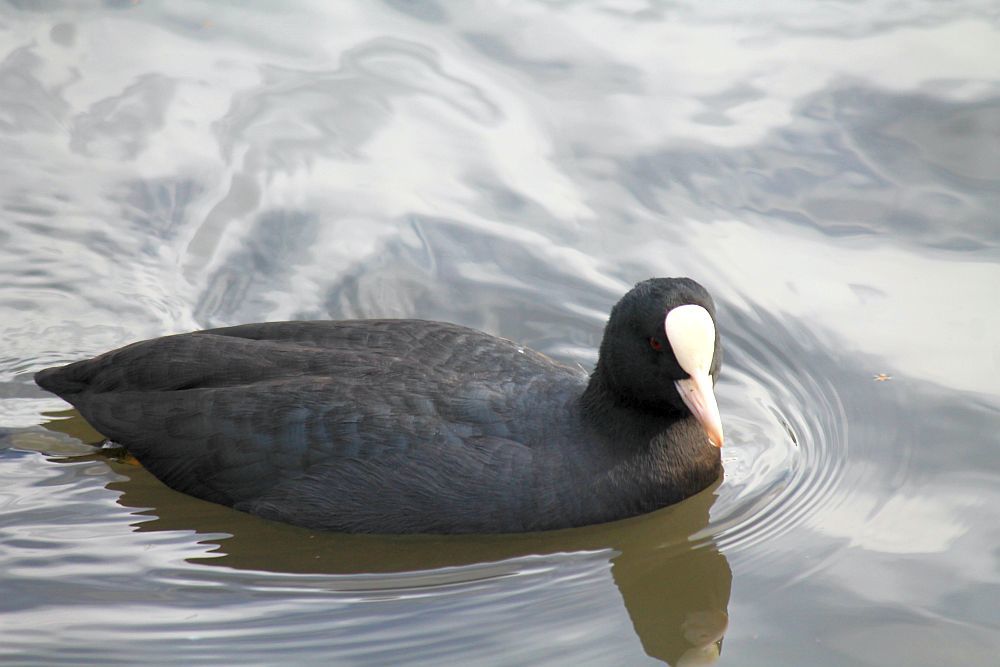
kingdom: Animalia
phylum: Chordata
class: Aves
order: Gruiformes
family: Rallidae
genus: Fulica
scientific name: Fulica atra
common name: Eurasian coot
